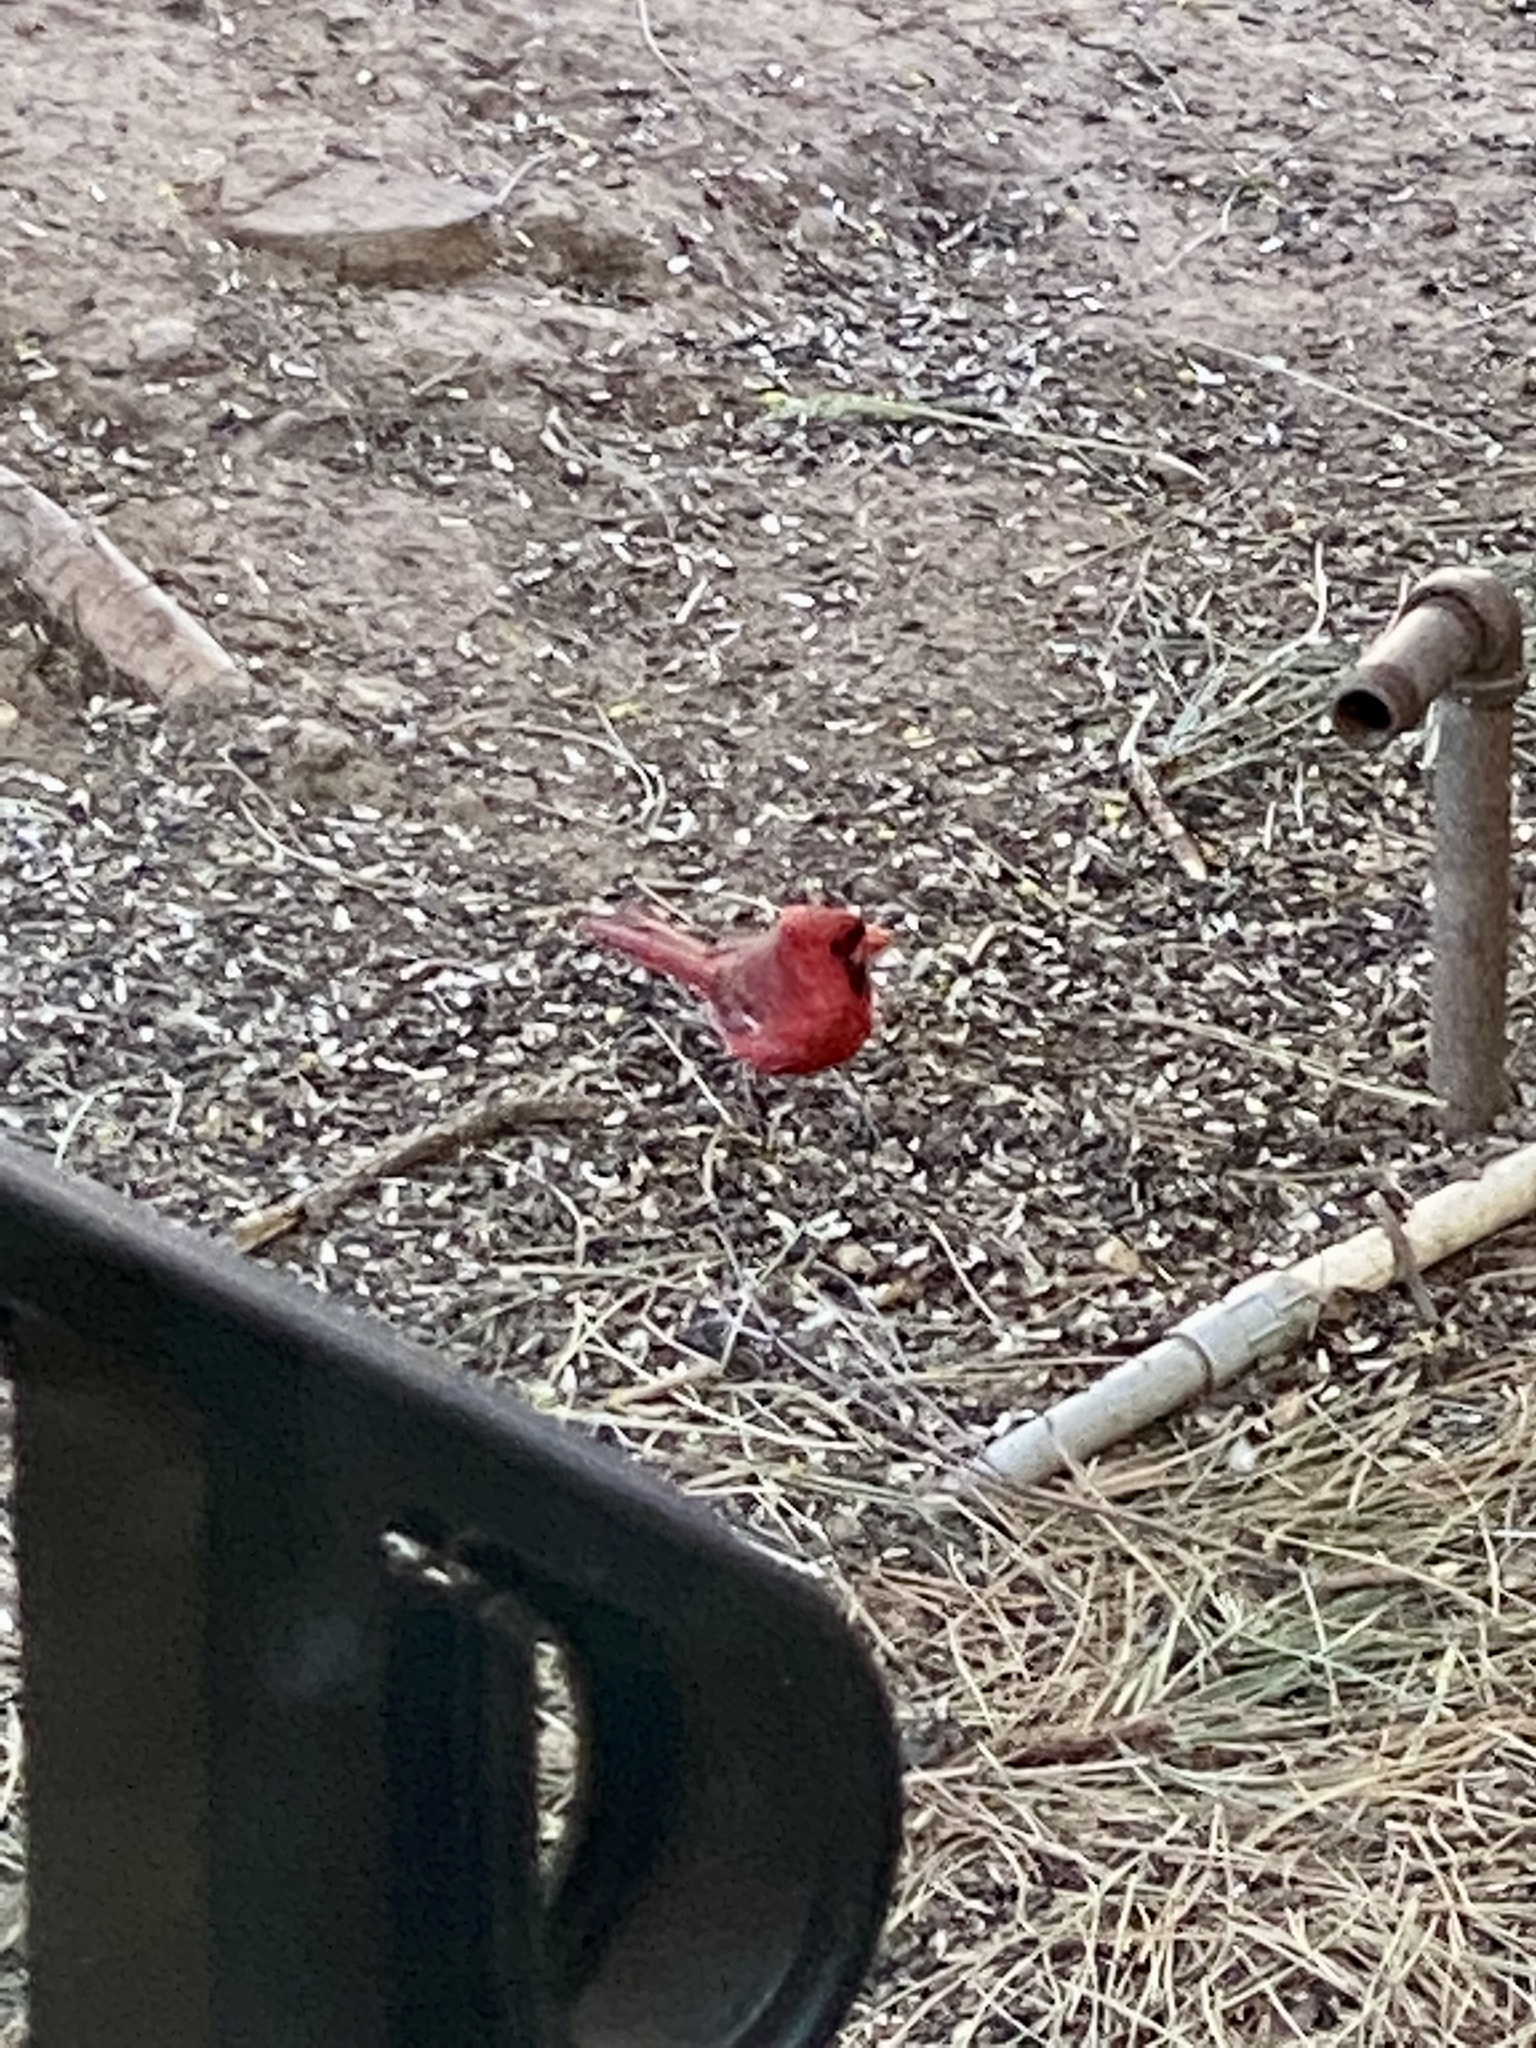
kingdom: Animalia
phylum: Chordata
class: Aves
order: Passeriformes
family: Cardinalidae
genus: Cardinalis
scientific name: Cardinalis cardinalis
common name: Northern cardinal
